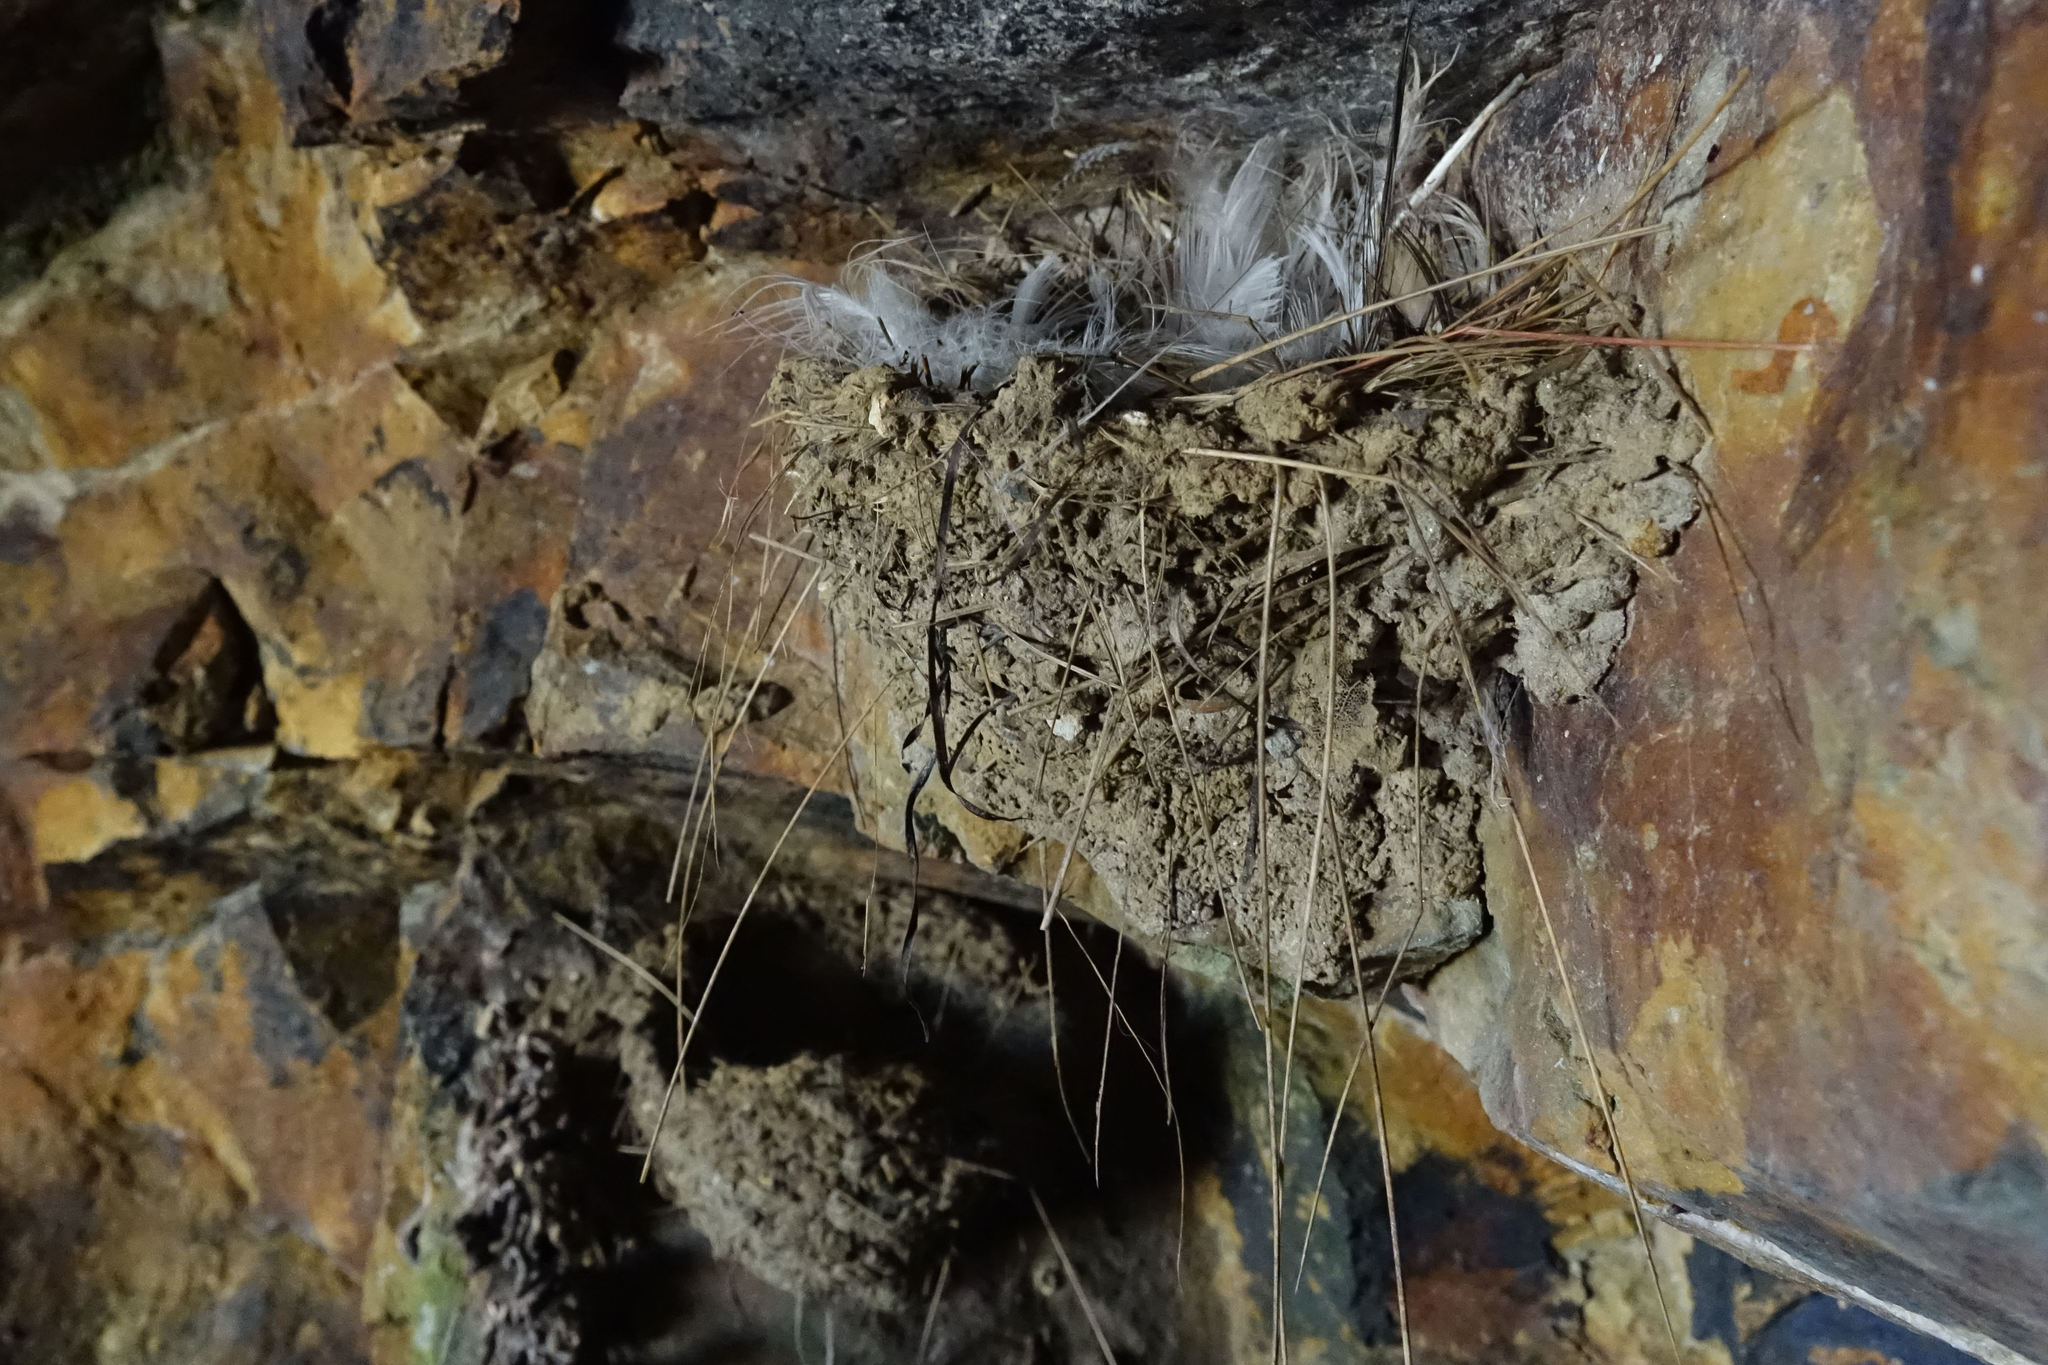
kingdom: Animalia
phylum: Chordata
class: Aves
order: Passeriformes
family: Hirundinidae
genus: Hirundo
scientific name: Hirundo neoxena
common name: Welcome swallow
